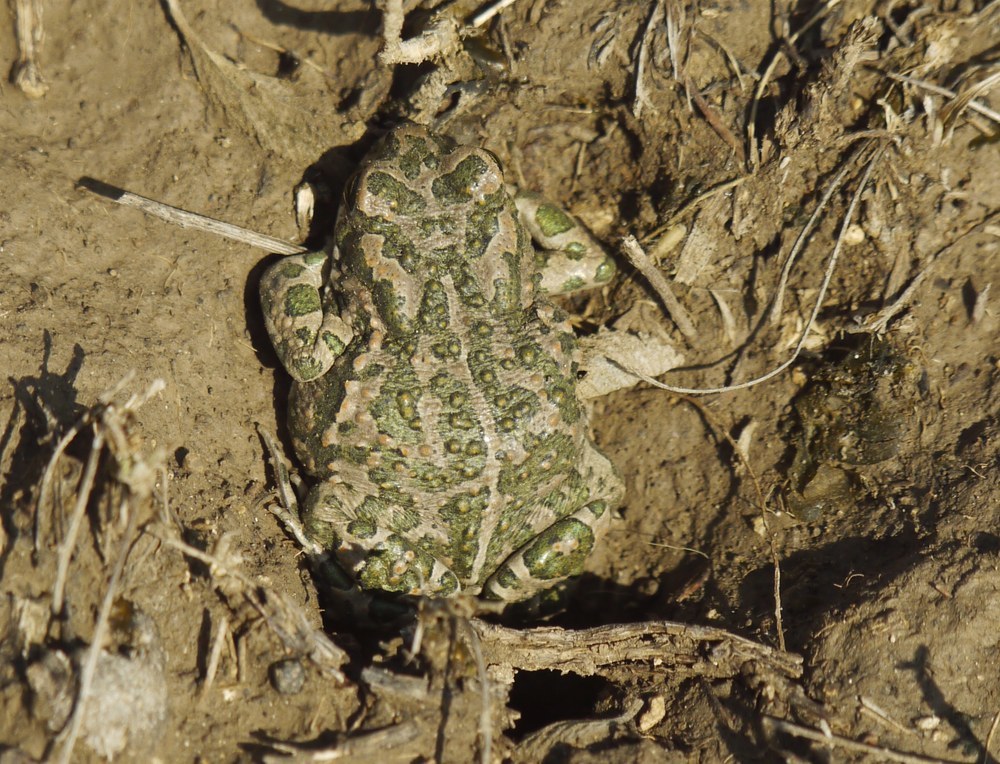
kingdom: Animalia
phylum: Chordata
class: Amphibia
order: Anura
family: Bufonidae
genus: Bufotes
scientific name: Bufotes viridis
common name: European green toad
